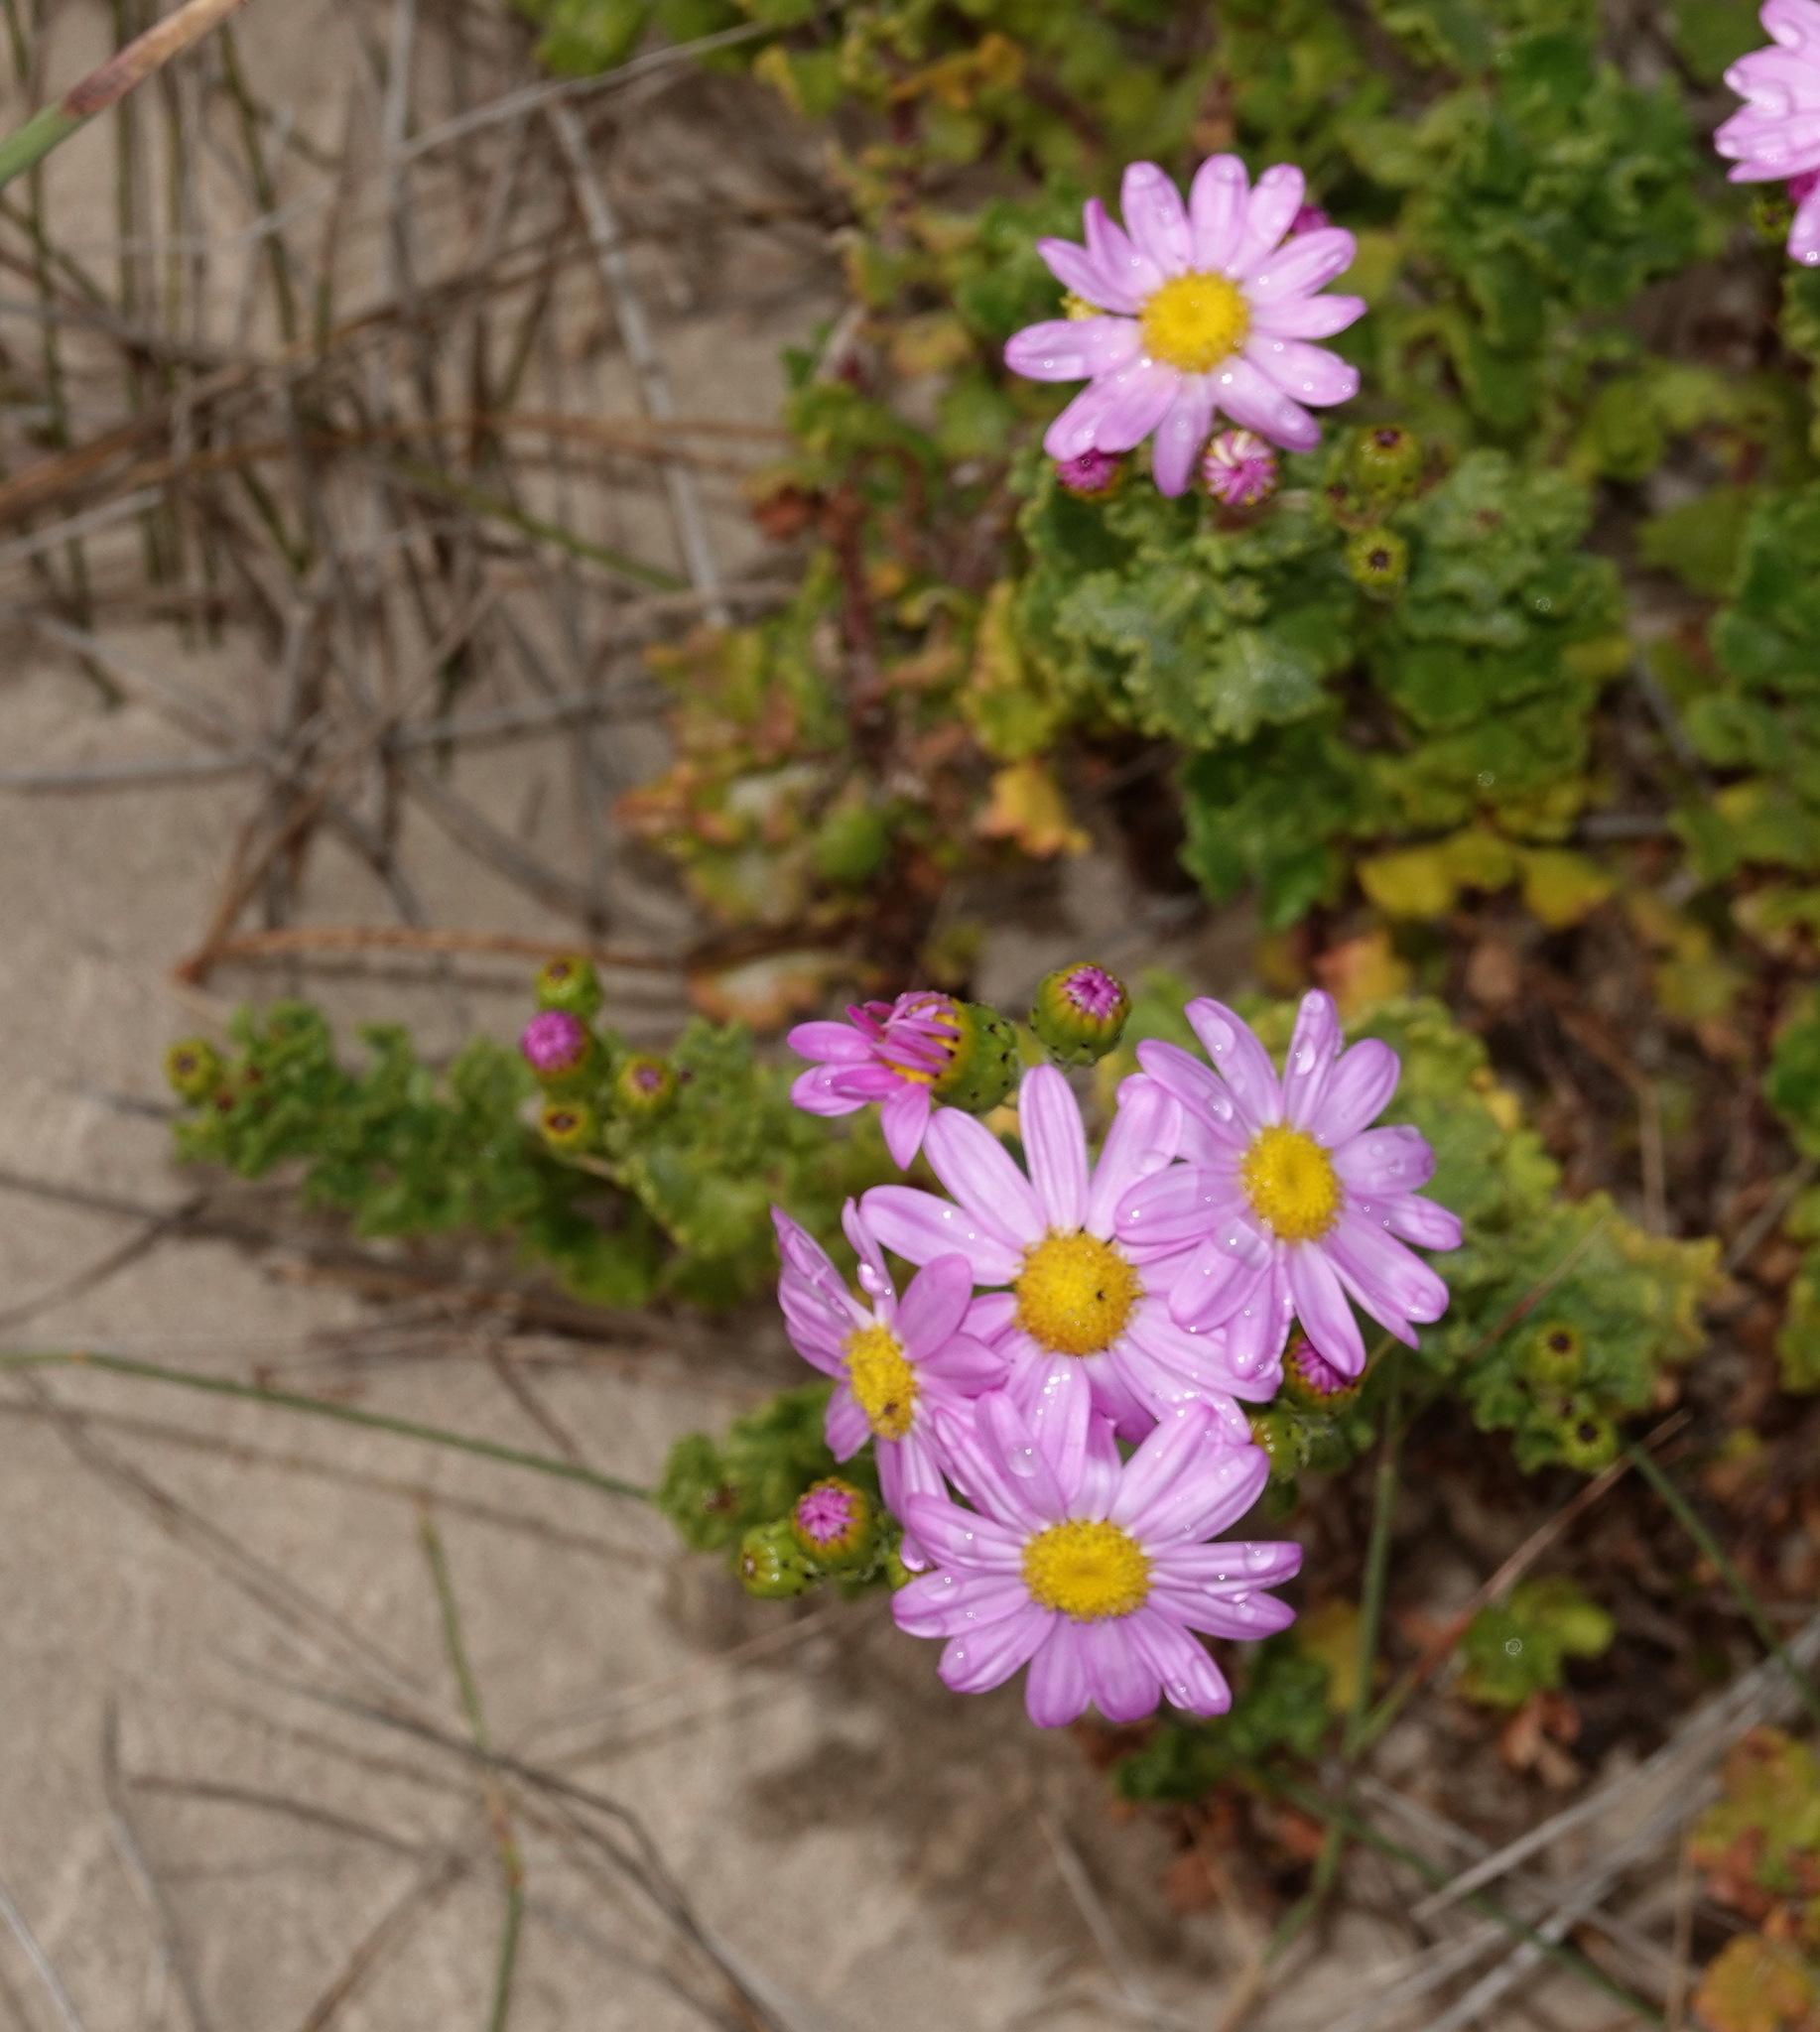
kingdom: Plantae
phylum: Tracheophyta
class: Magnoliopsida
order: Asterales
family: Asteraceae
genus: Senecio
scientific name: Senecio elegans
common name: Purple groundsel
